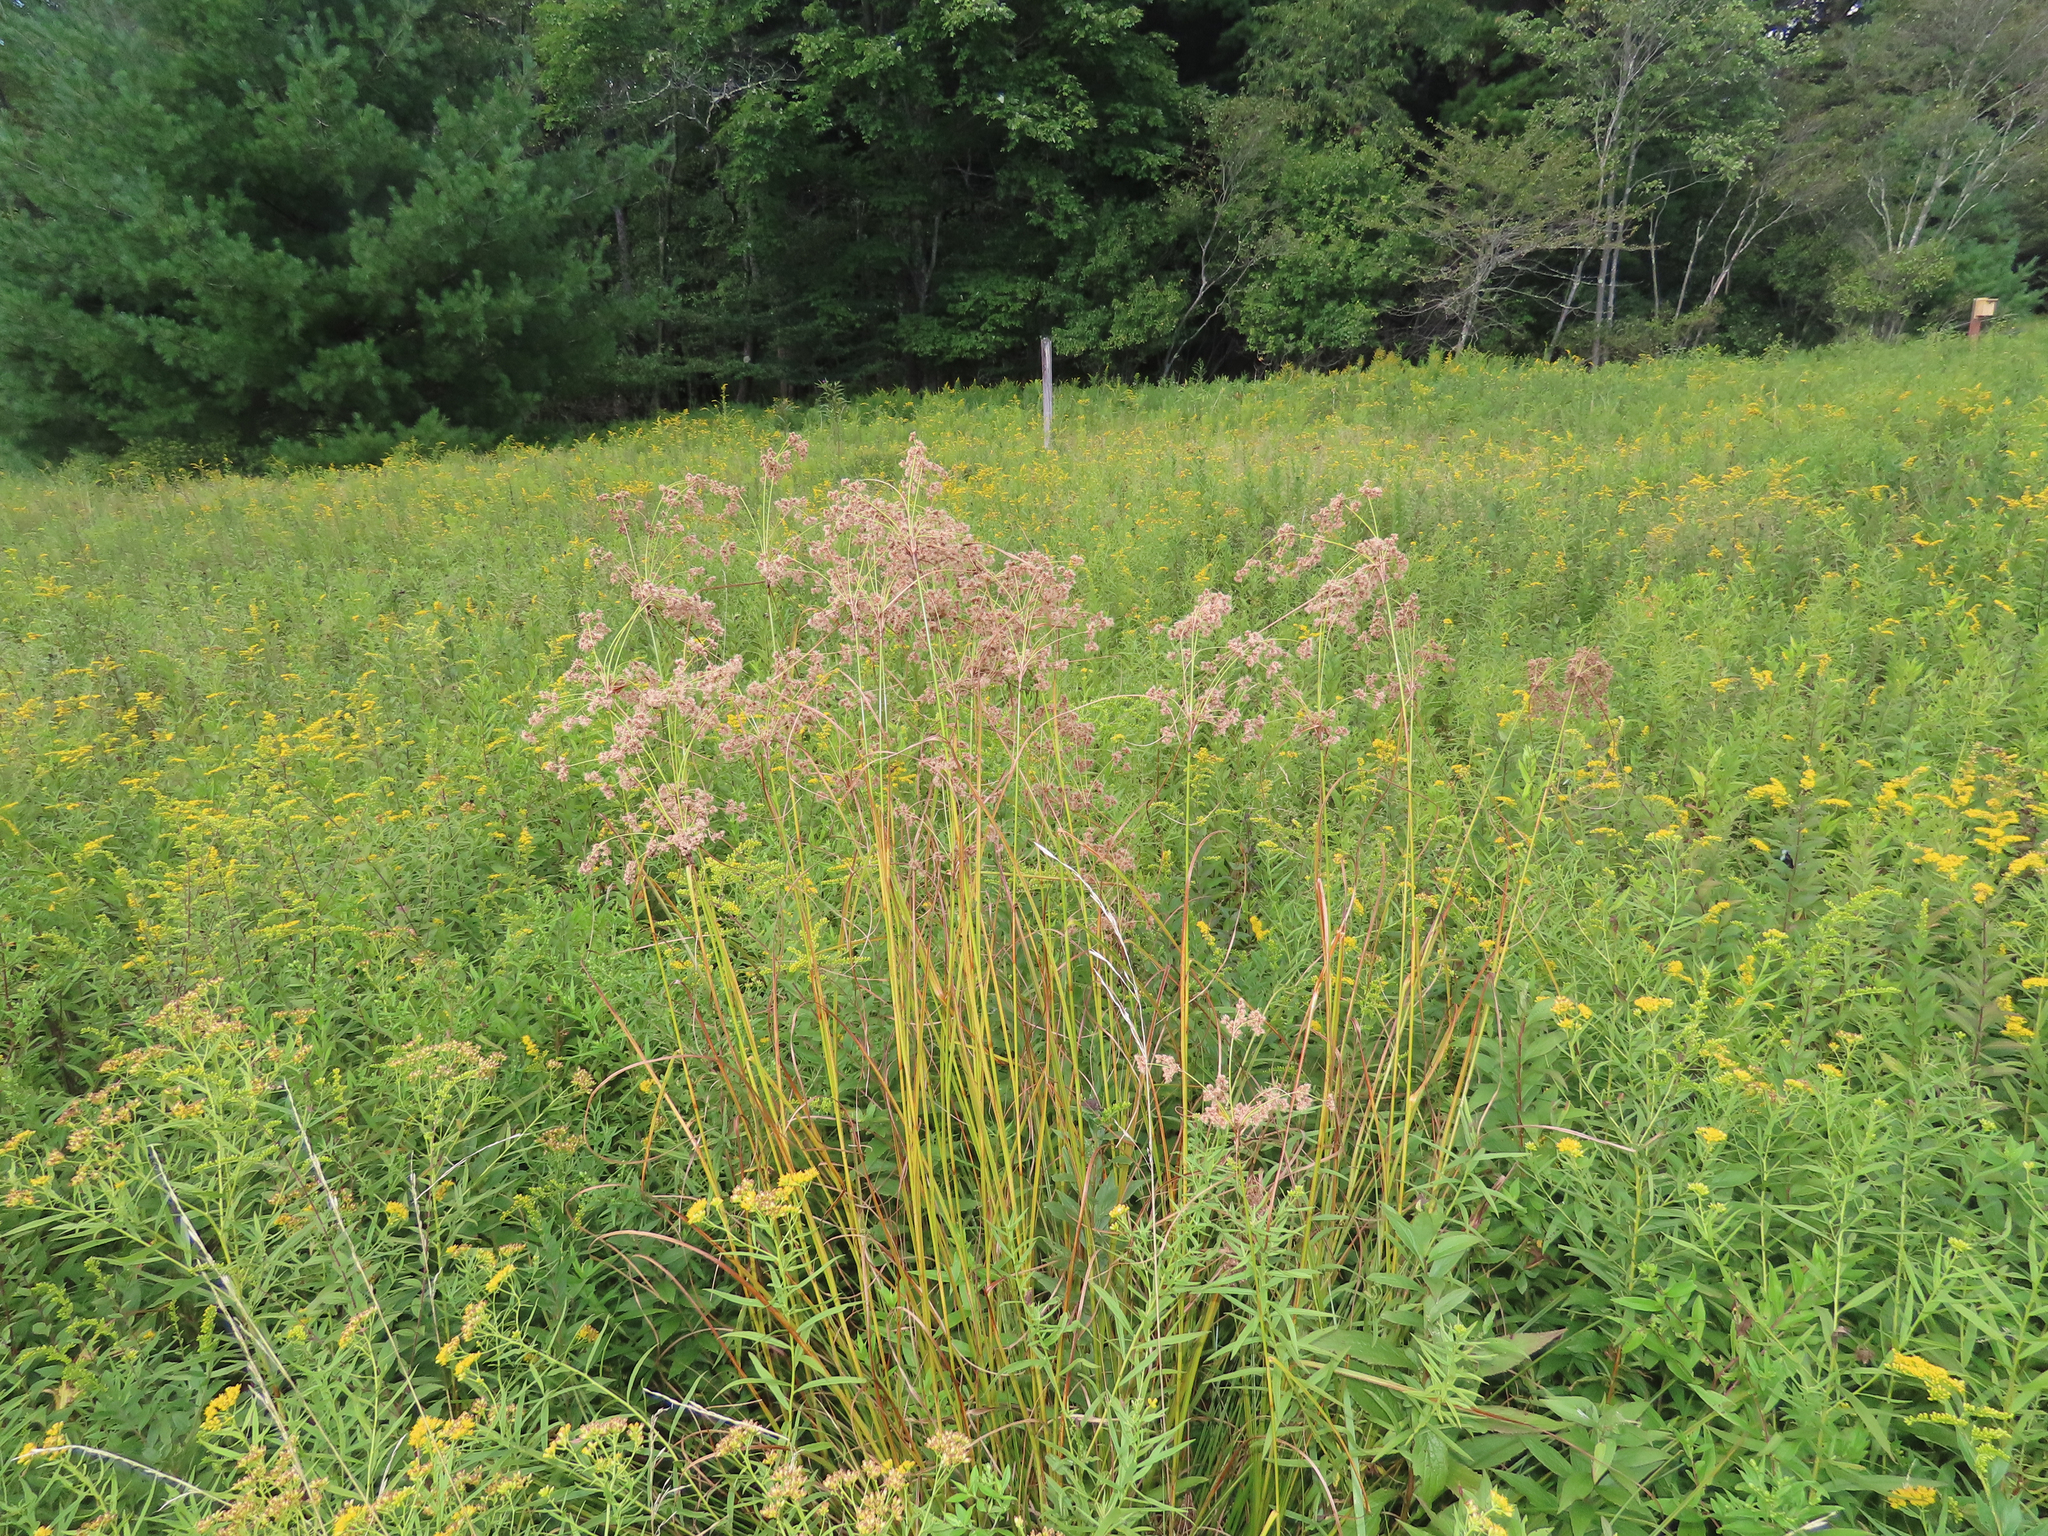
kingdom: Plantae
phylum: Tracheophyta
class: Liliopsida
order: Poales
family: Cyperaceae
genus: Scirpus
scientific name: Scirpus cyperinus
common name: Black-sheathed bulrush
